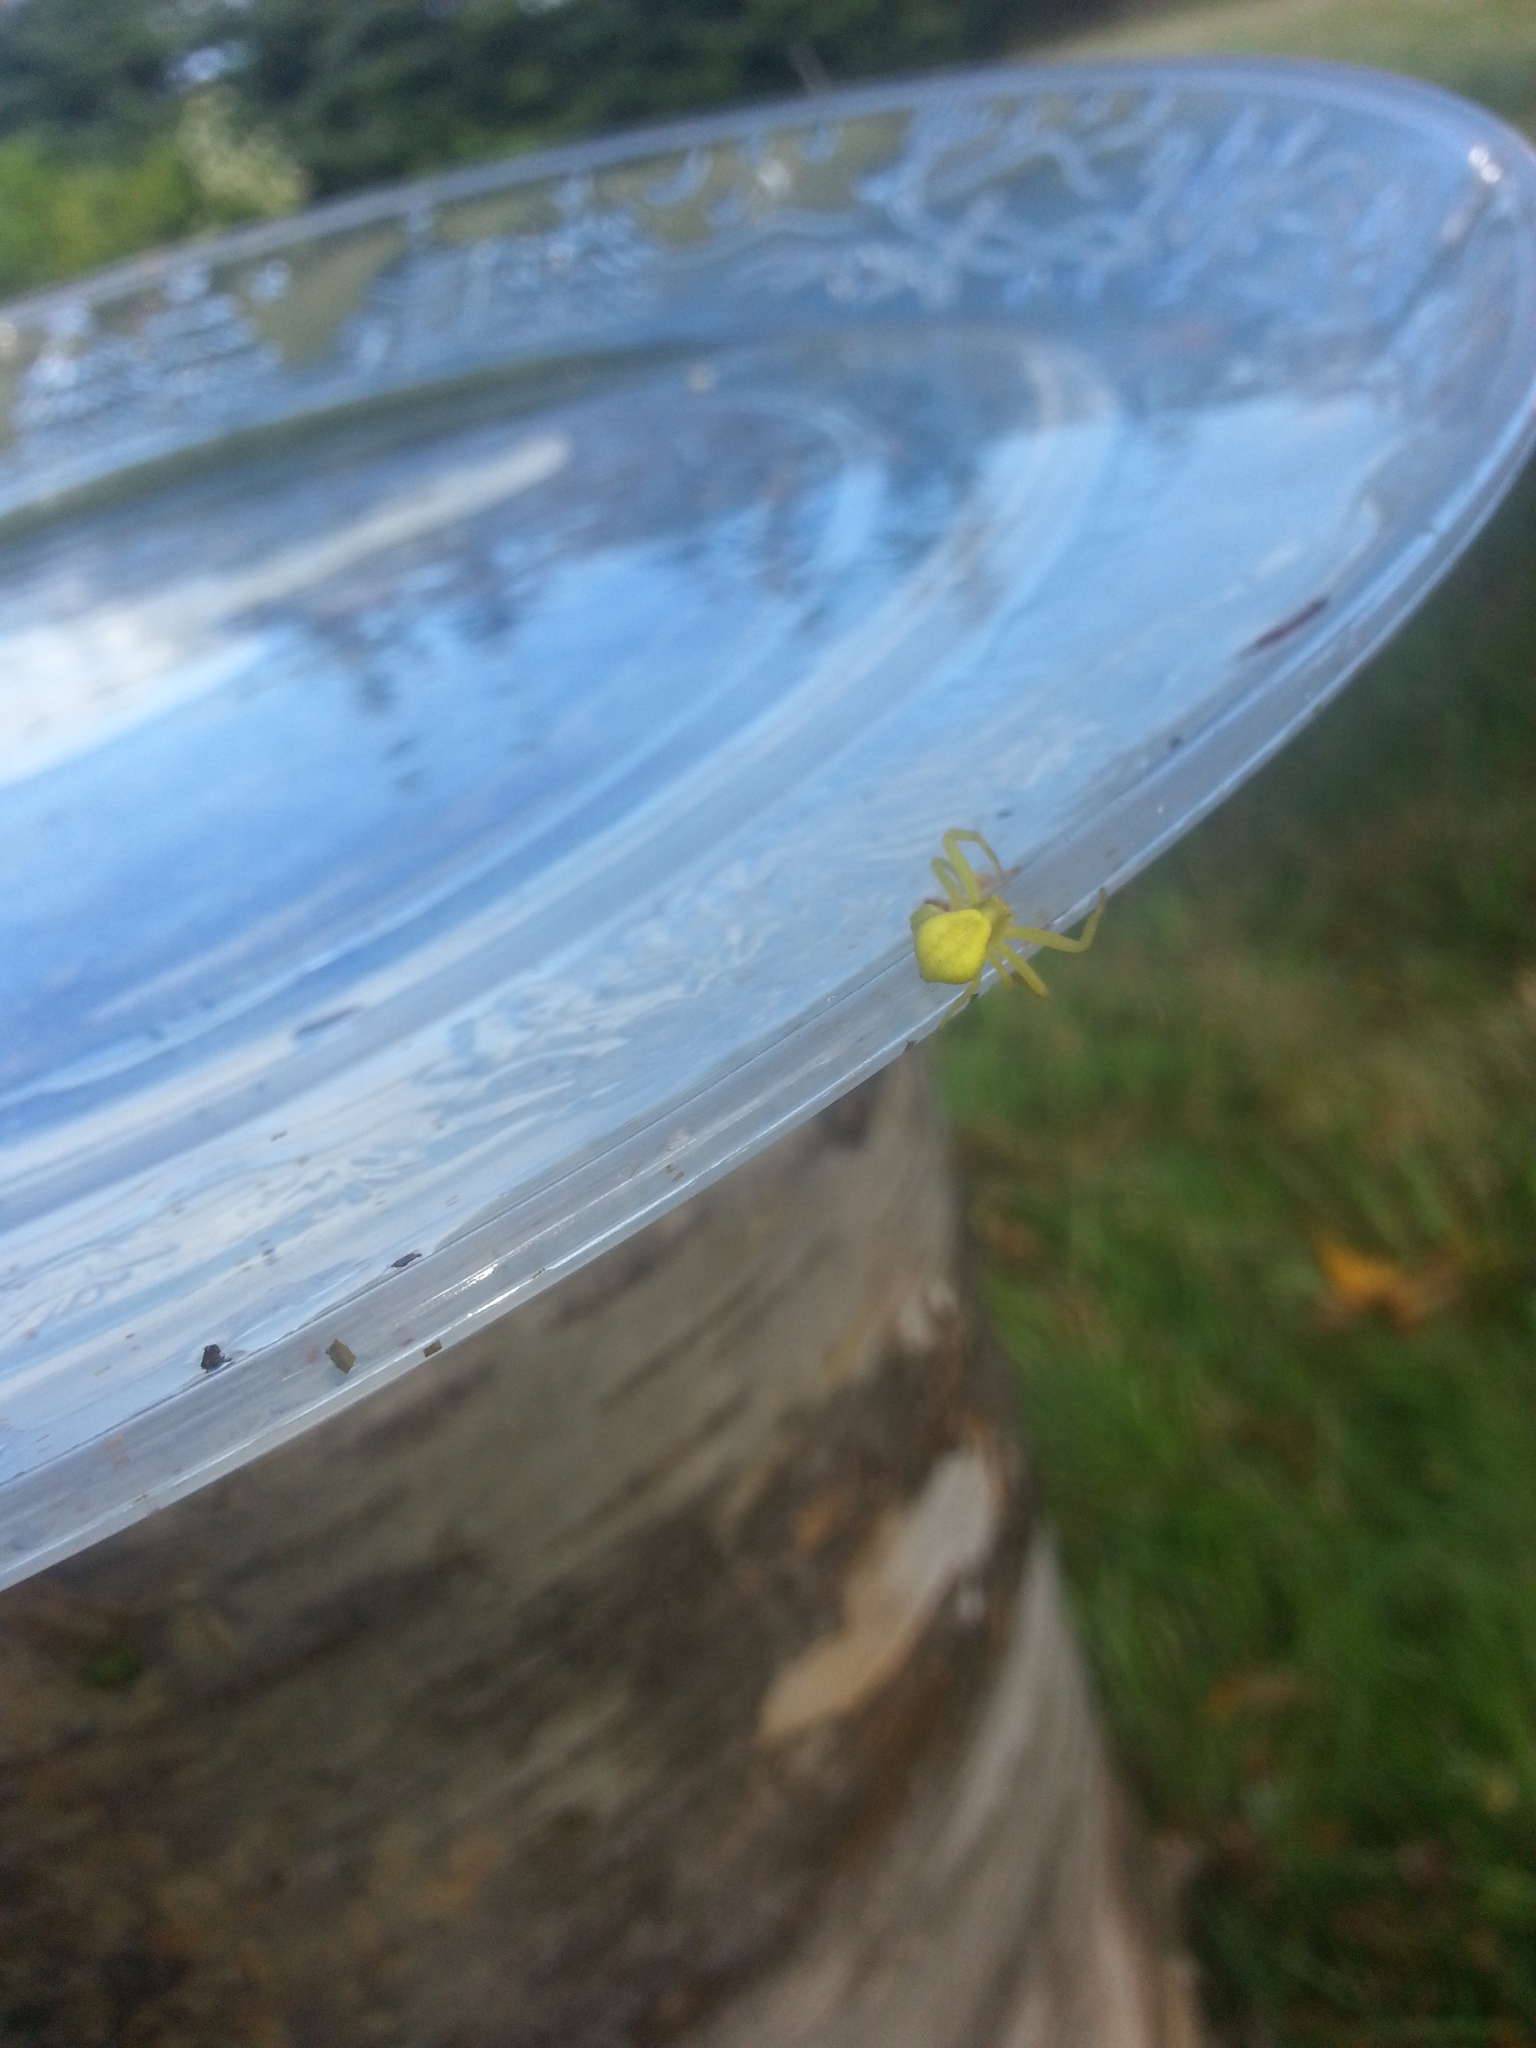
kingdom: Animalia
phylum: Arthropoda
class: Arachnida
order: Araneae
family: Thomisidae
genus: Misumena
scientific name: Misumena vatia
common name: Goldenrod crab spider
